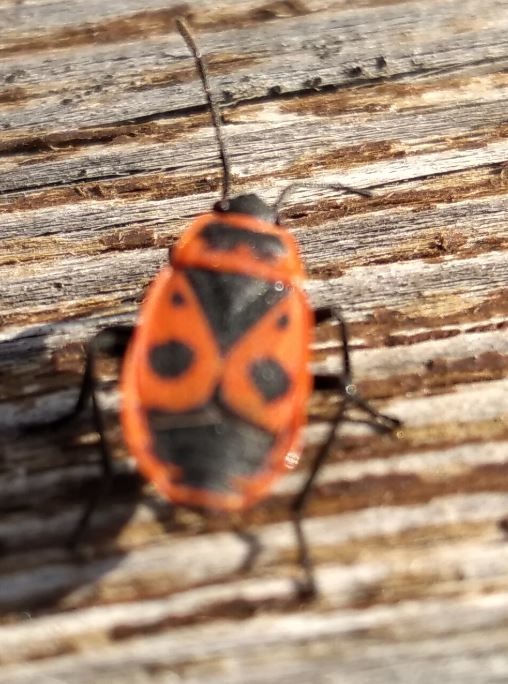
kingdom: Animalia
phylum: Arthropoda
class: Insecta
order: Hemiptera
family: Pyrrhocoridae
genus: Pyrrhocoris
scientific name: Pyrrhocoris apterus
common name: Firebug
